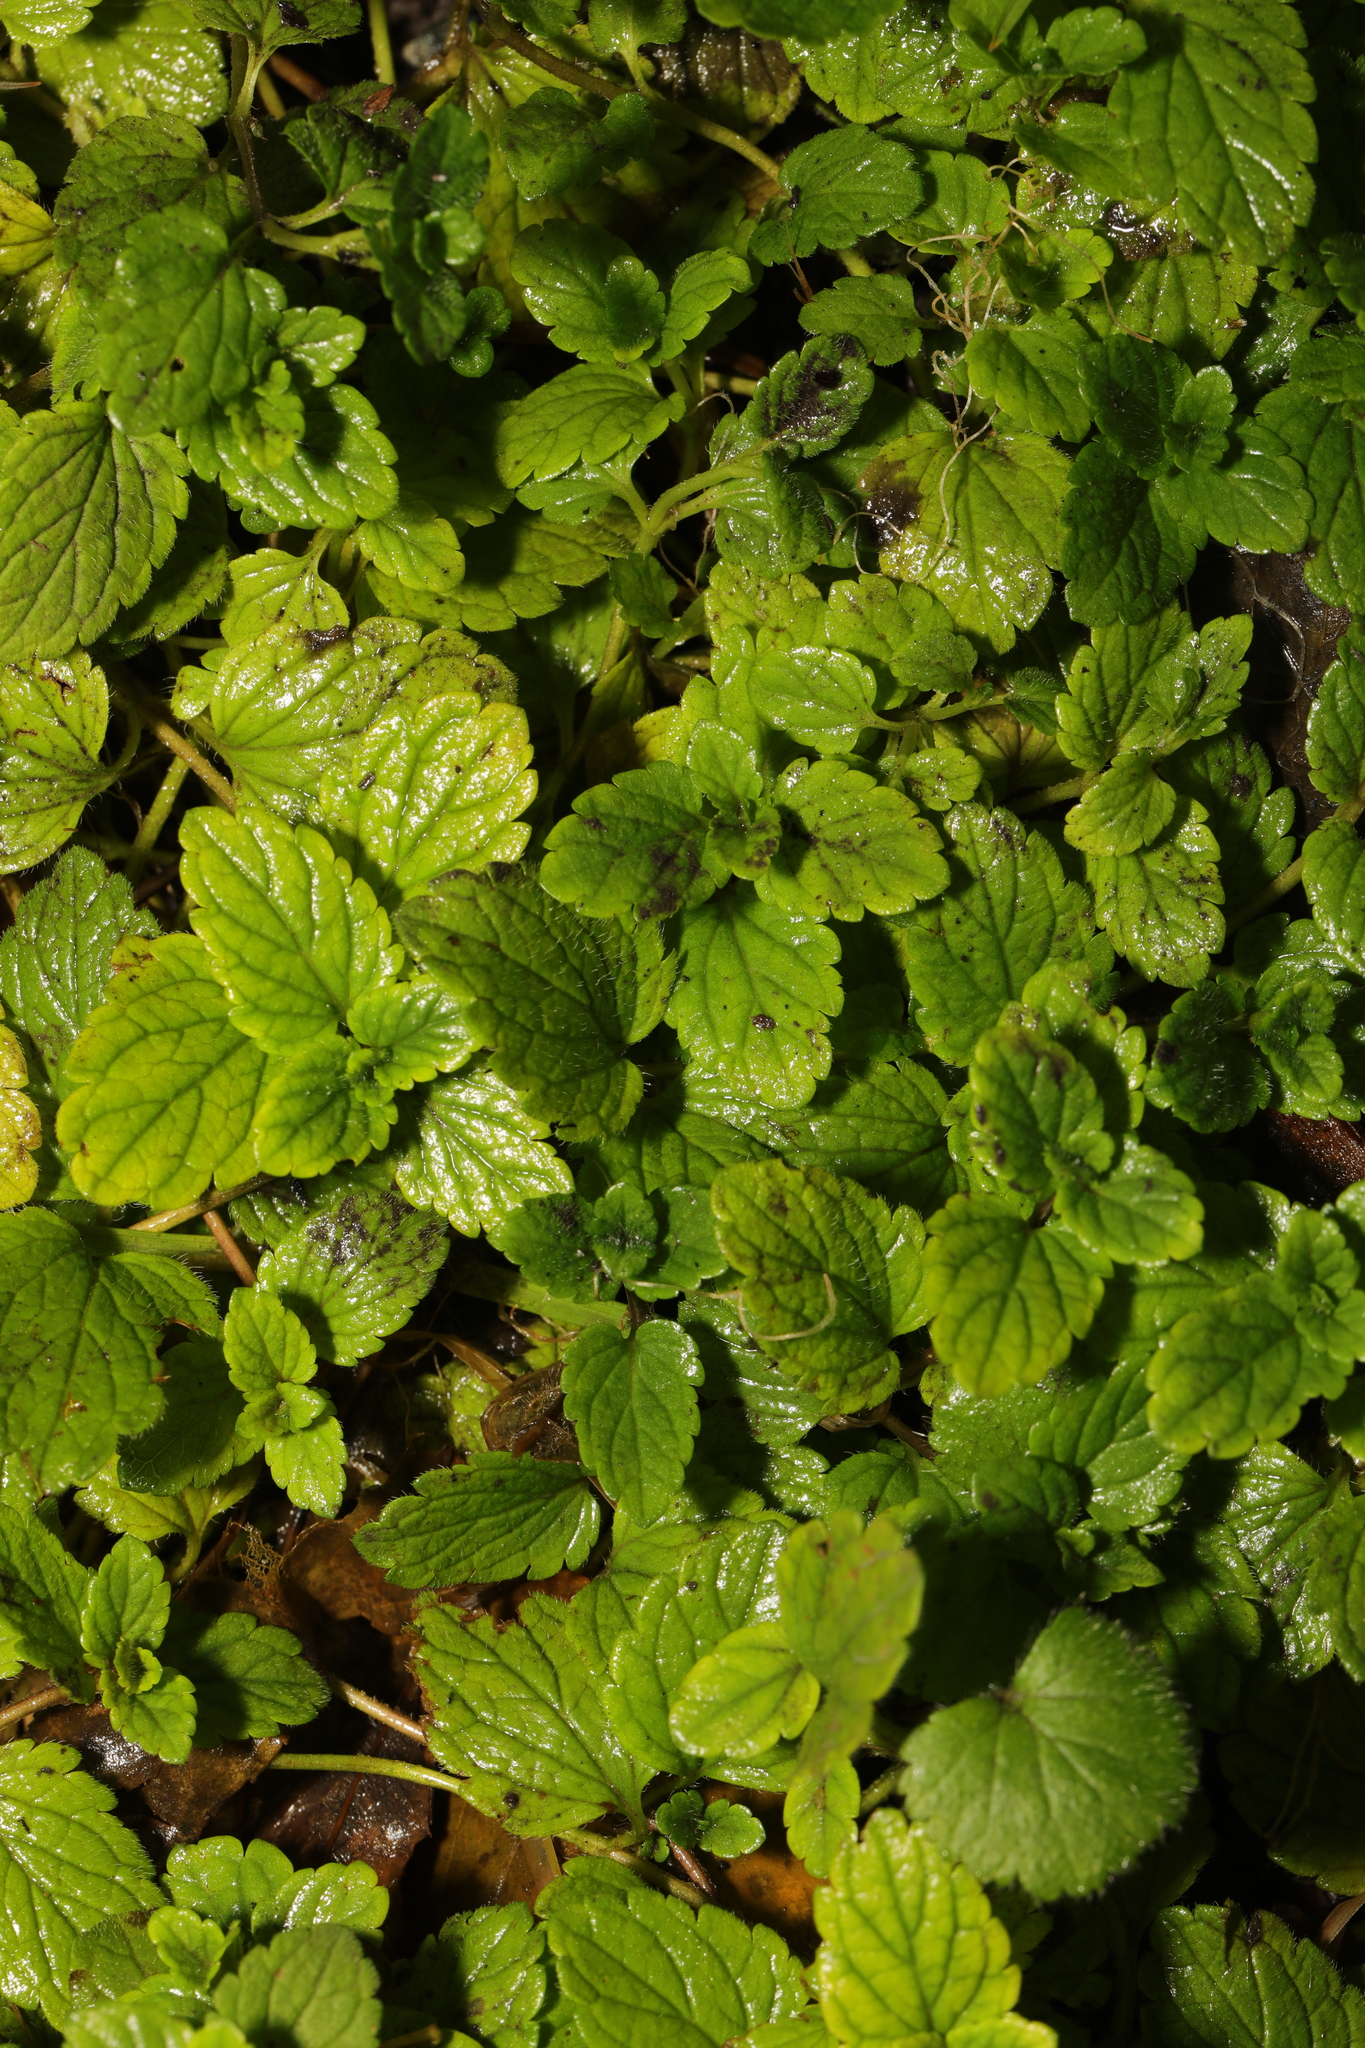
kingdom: Plantae
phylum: Tracheophyta
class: Magnoliopsida
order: Lamiales
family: Lamiaceae
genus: Melissa
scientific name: Melissa officinalis
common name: Balm
